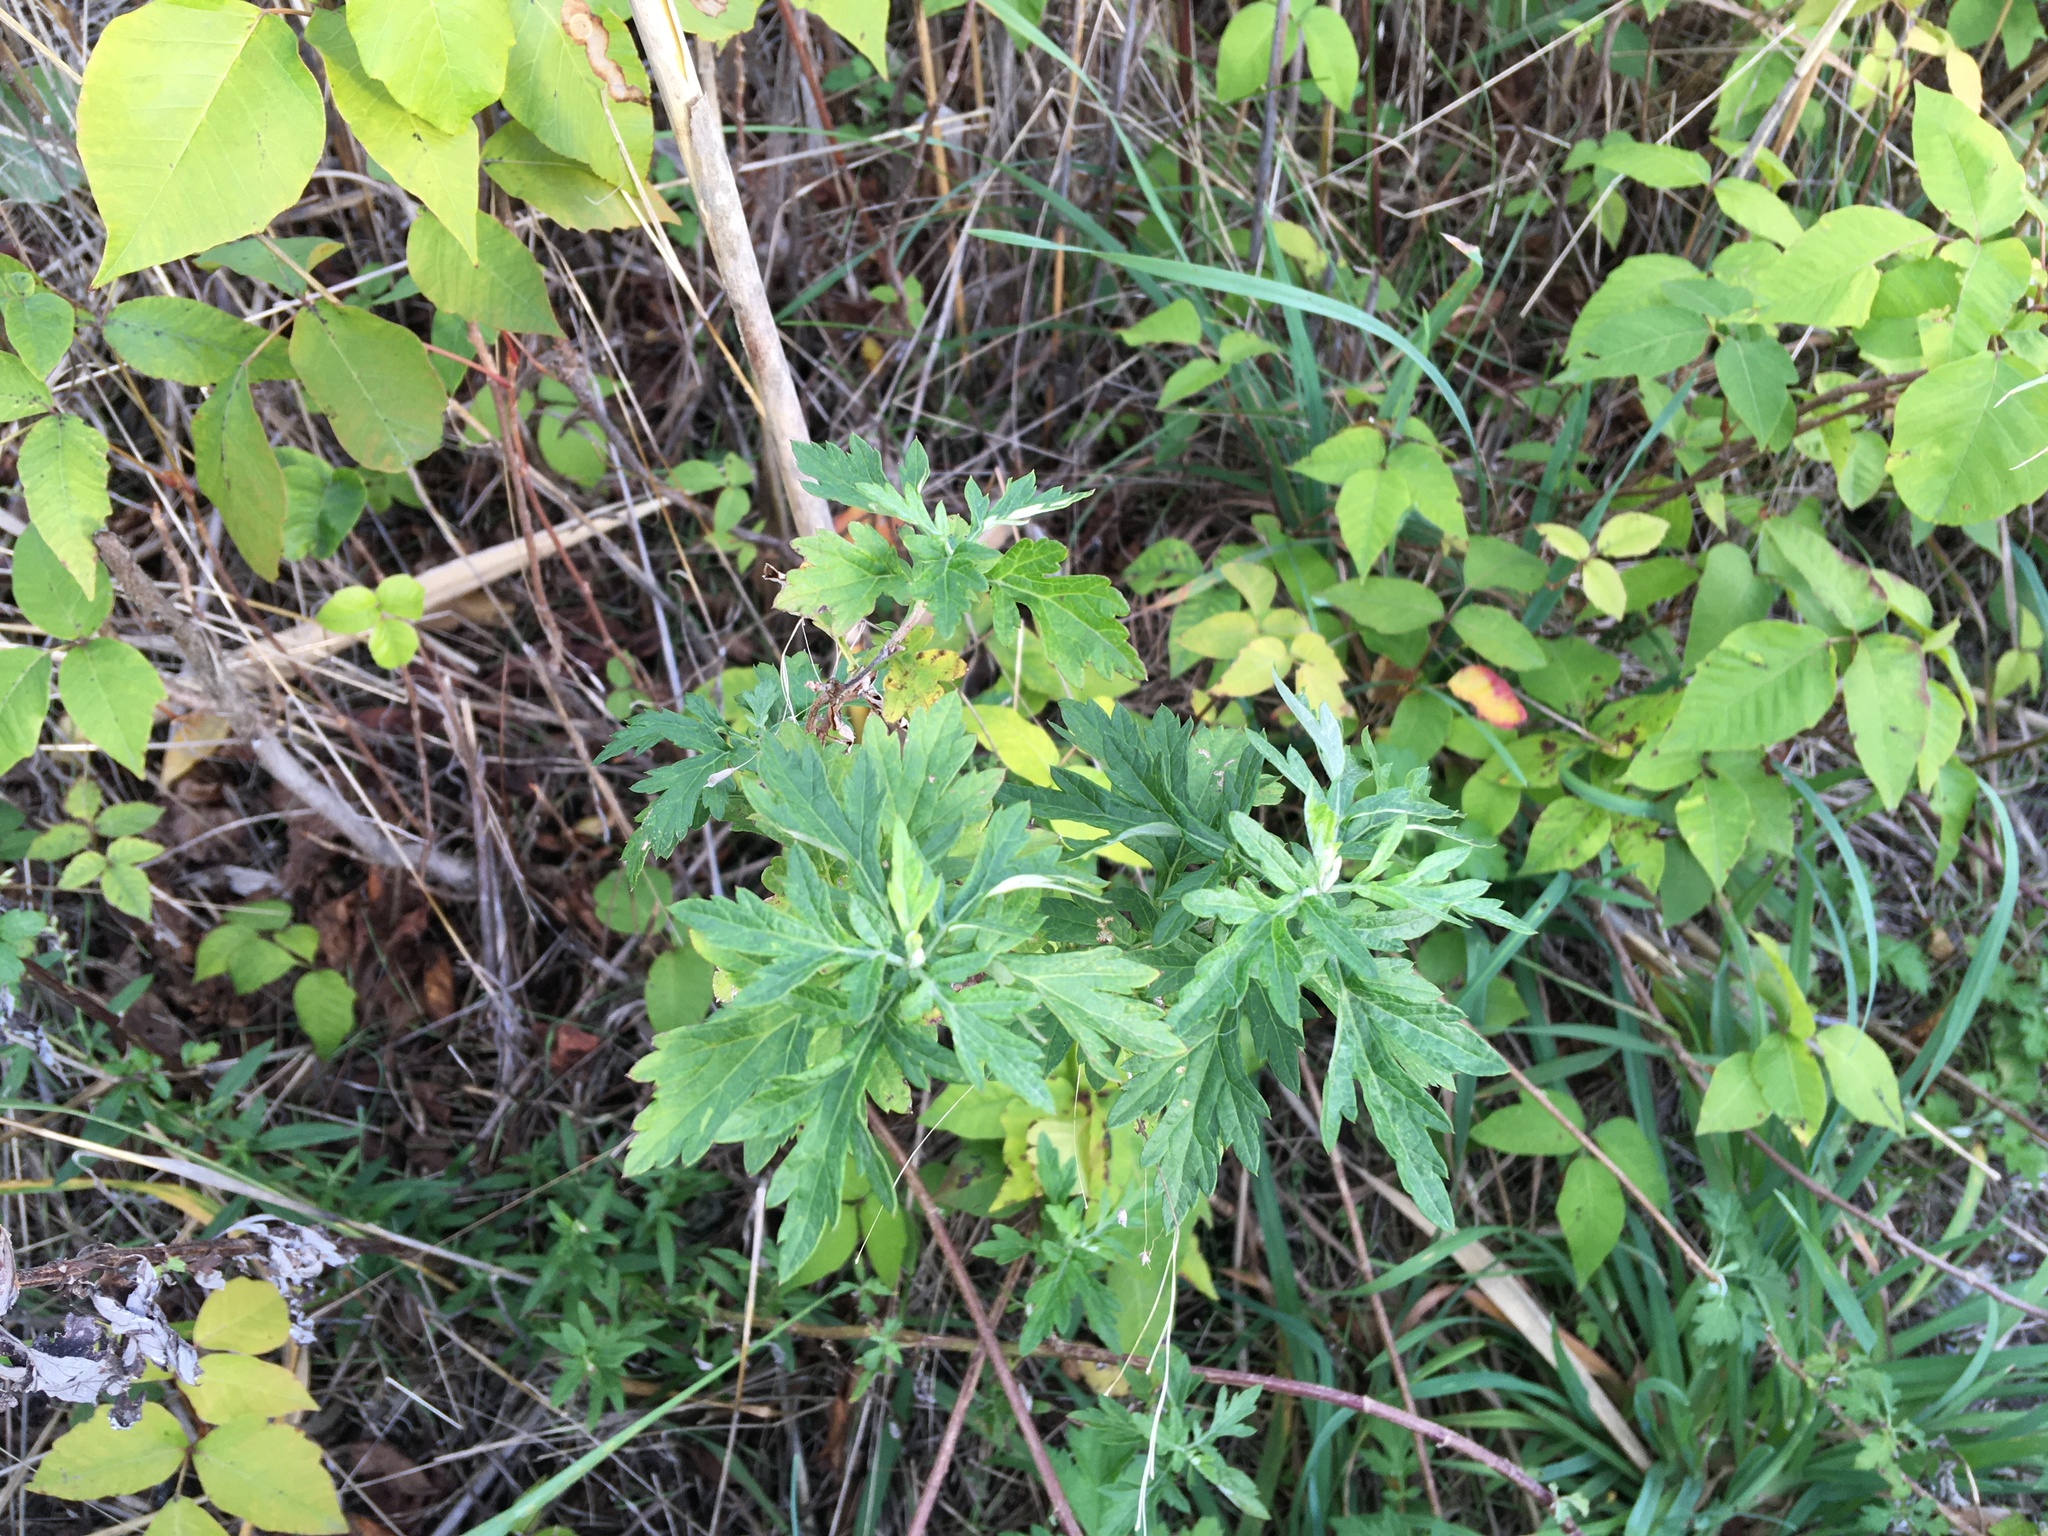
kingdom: Plantae
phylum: Tracheophyta
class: Magnoliopsida
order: Asterales
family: Asteraceae
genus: Artemisia
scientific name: Artemisia vulgaris
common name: Mugwort
